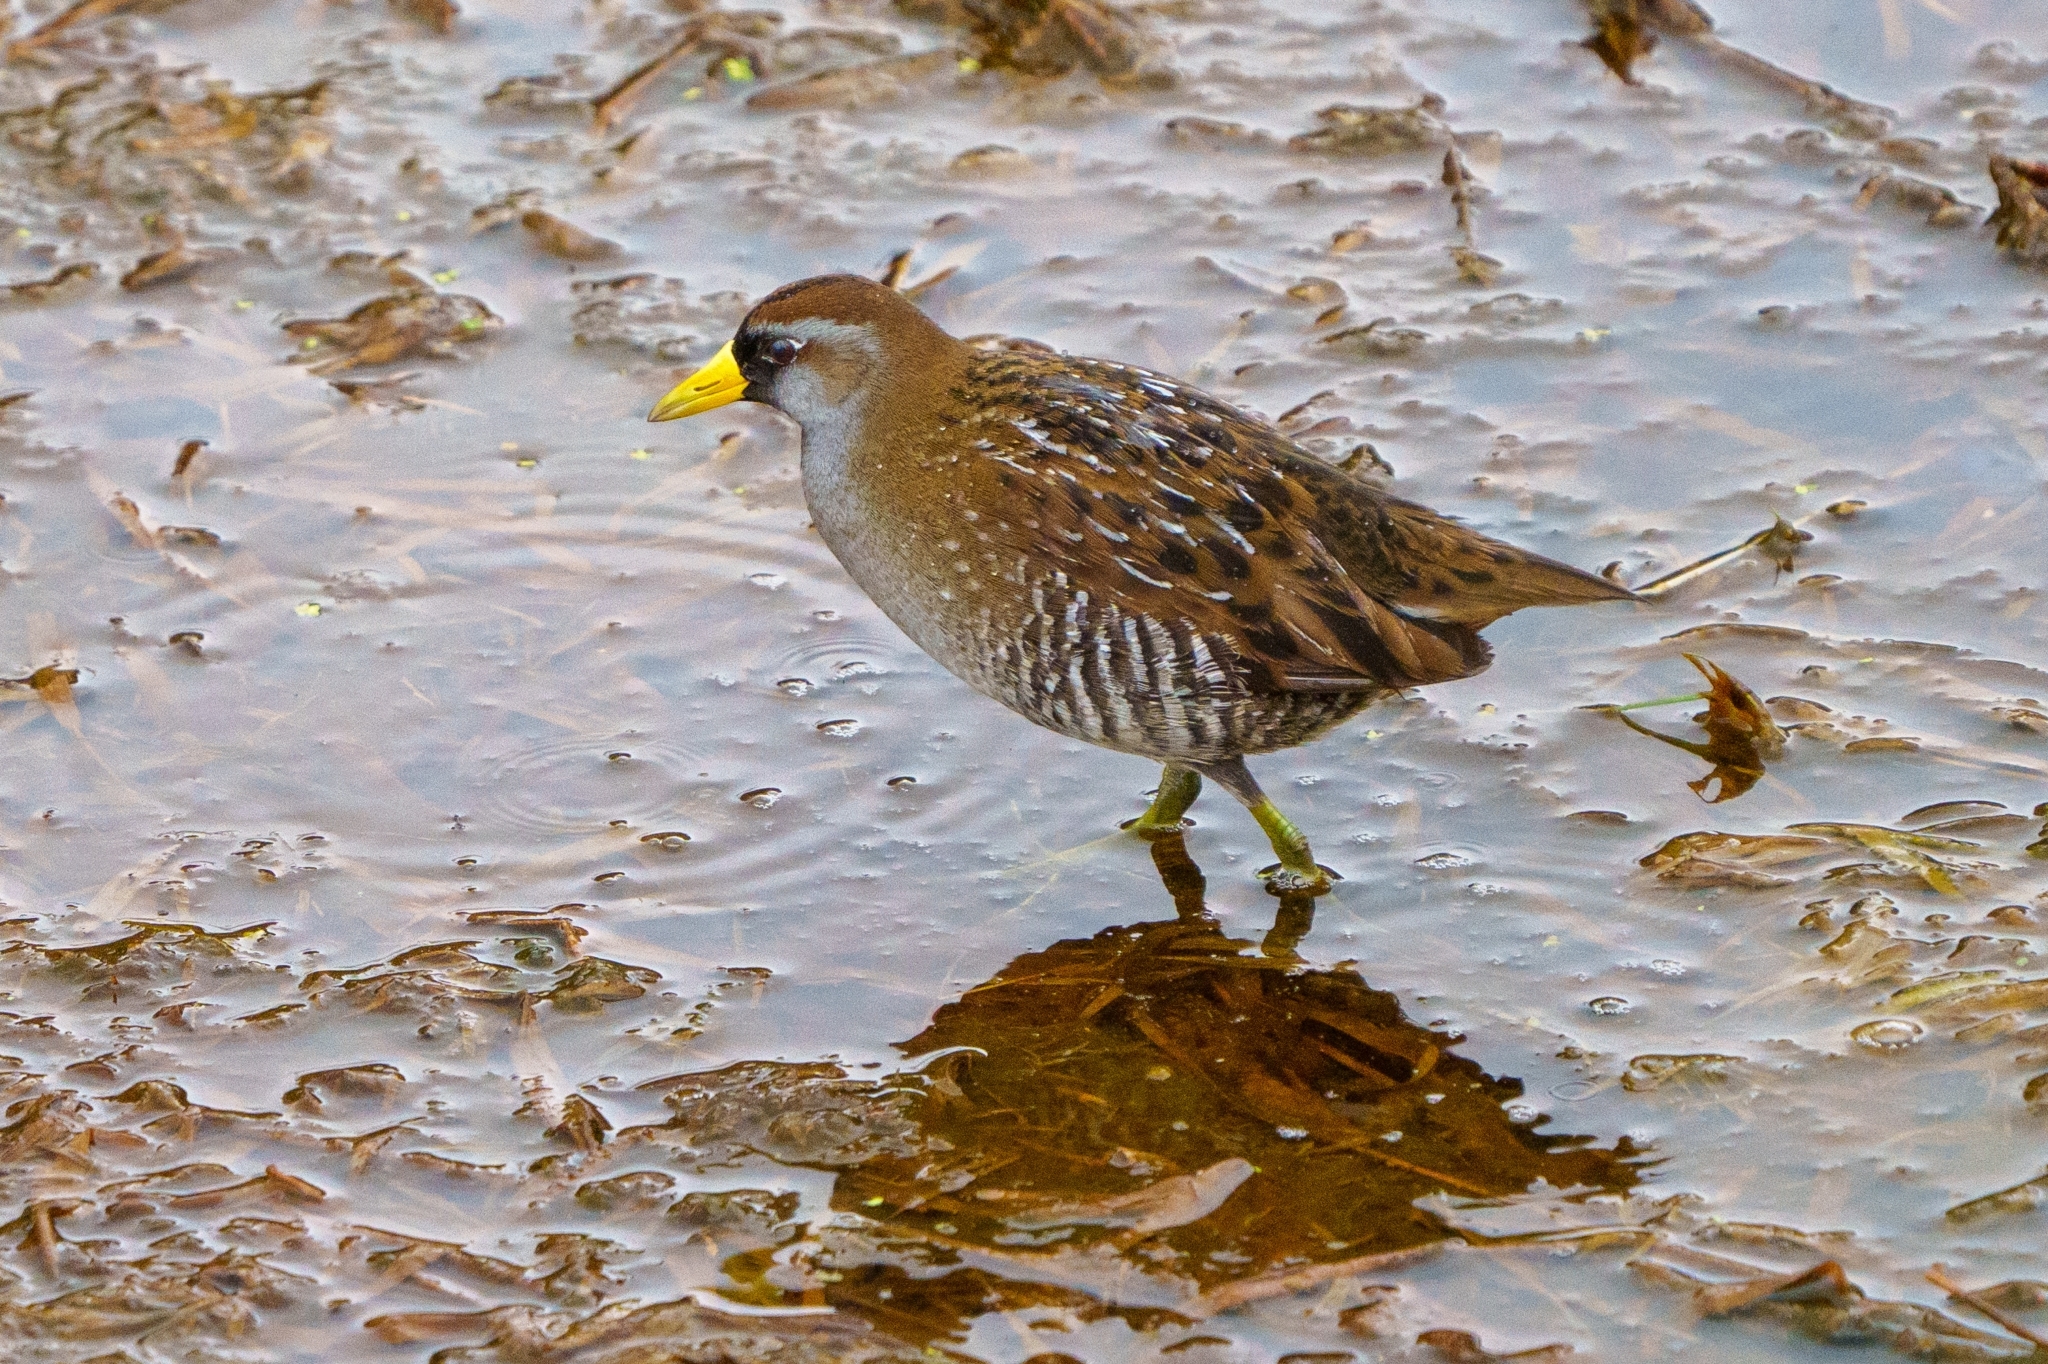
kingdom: Animalia
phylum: Chordata
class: Aves
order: Gruiformes
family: Rallidae
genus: Porzana
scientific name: Porzana carolina
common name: Sora
